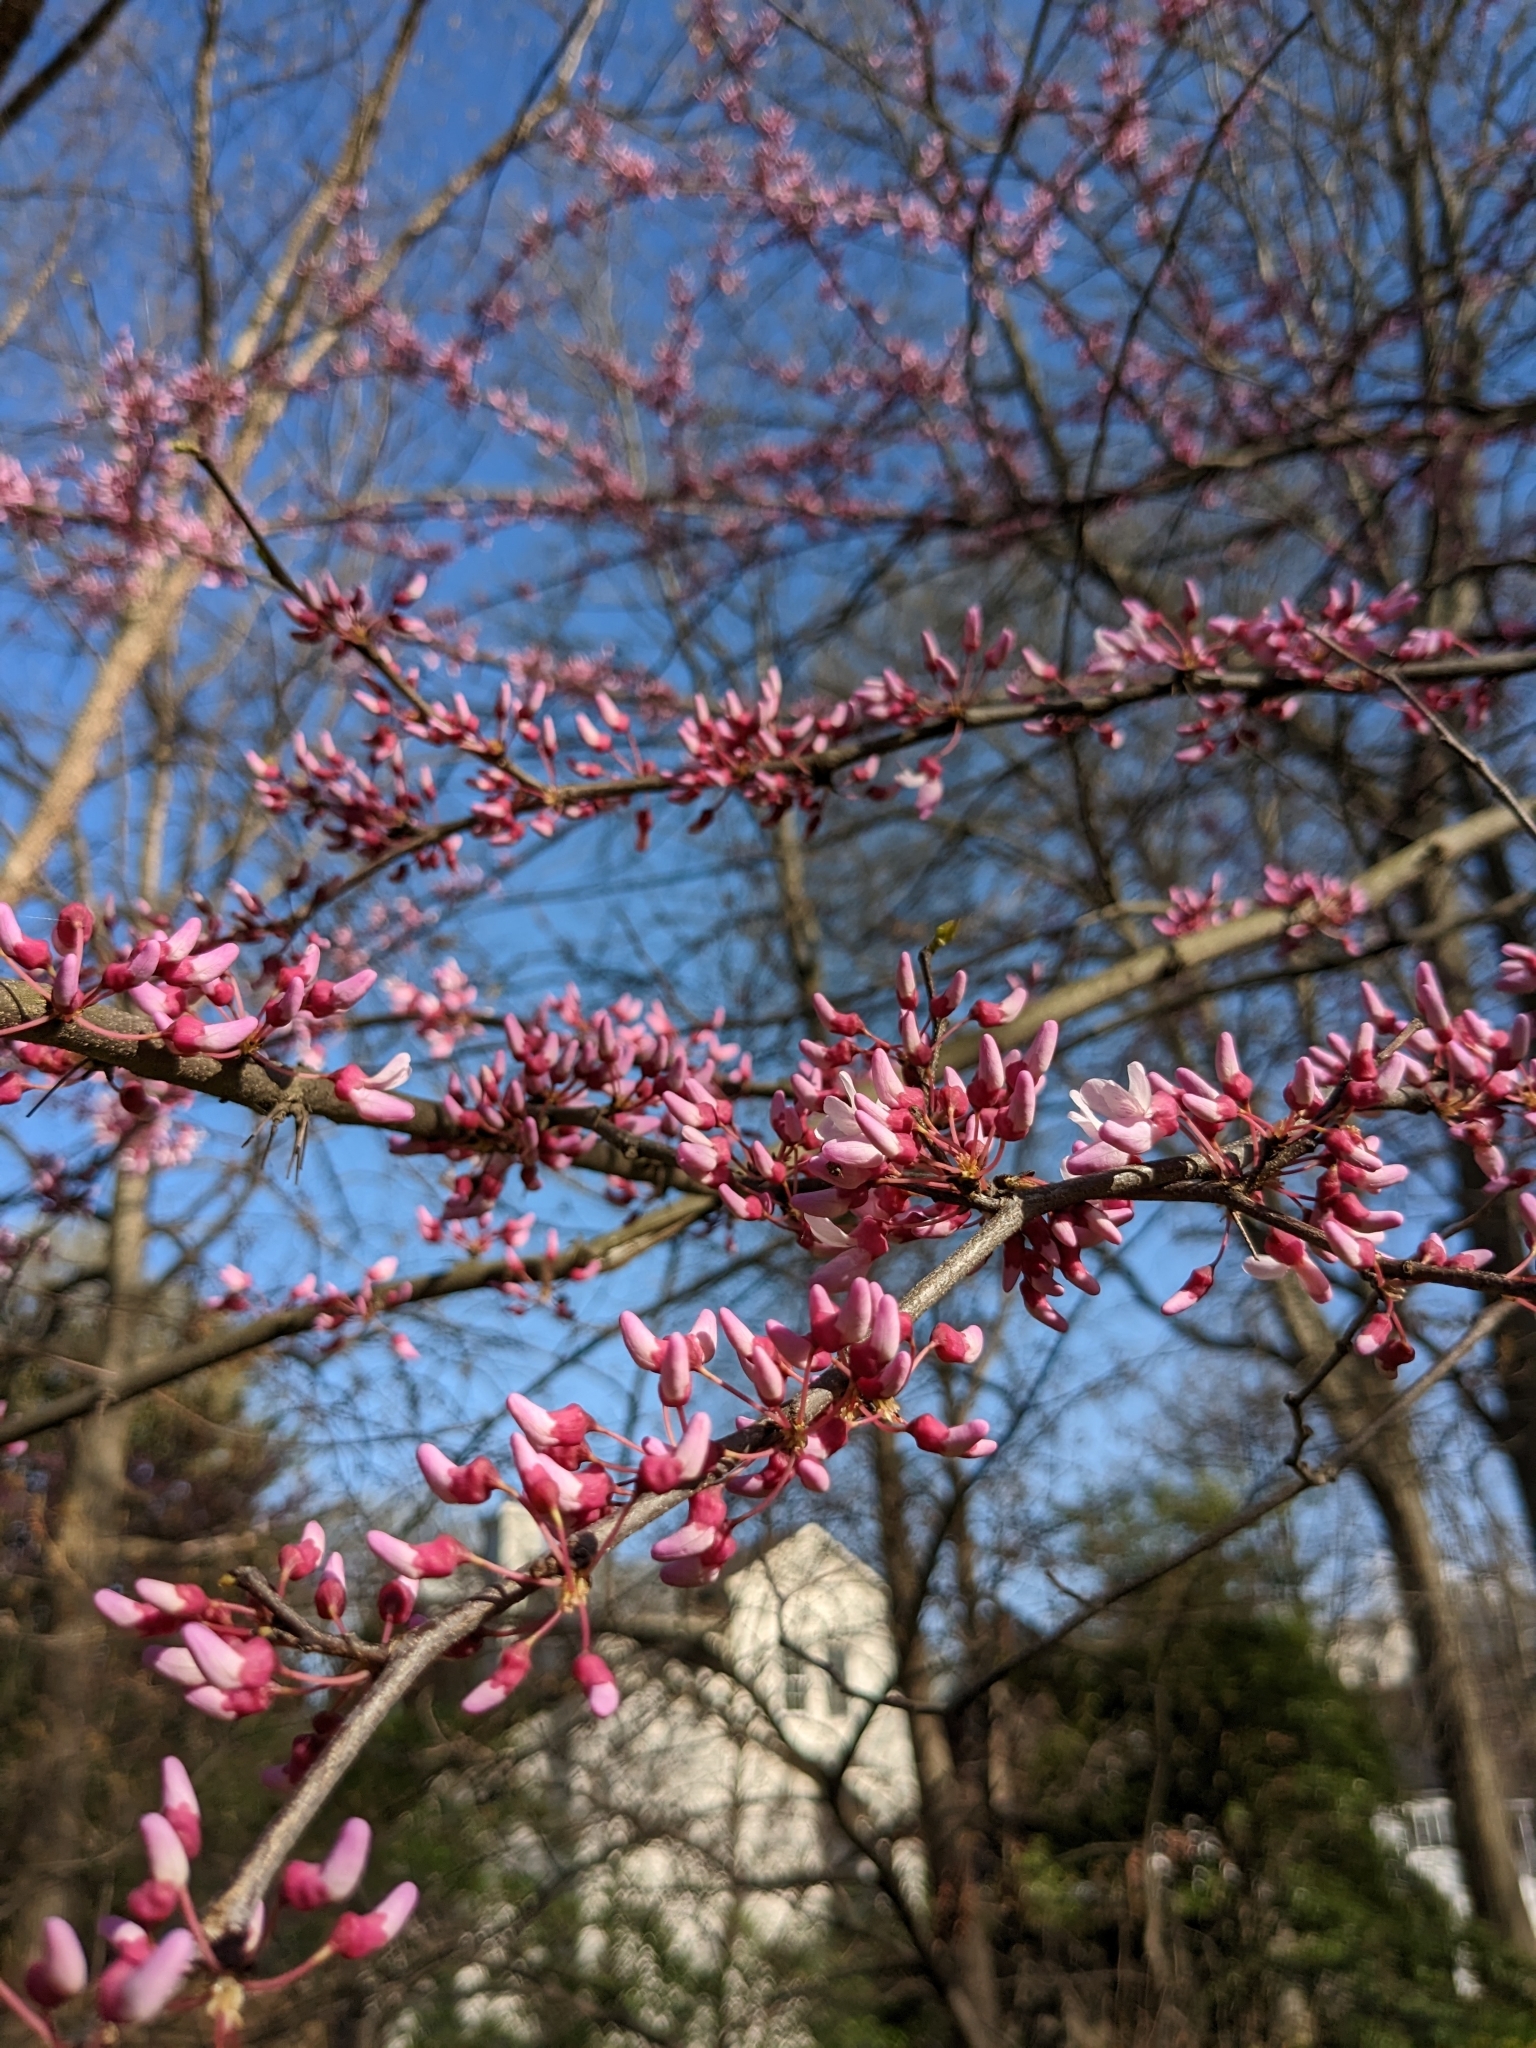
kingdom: Plantae
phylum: Tracheophyta
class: Magnoliopsida
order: Fabales
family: Fabaceae
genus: Cercis
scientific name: Cercis canadensis
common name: Eastern redbud
